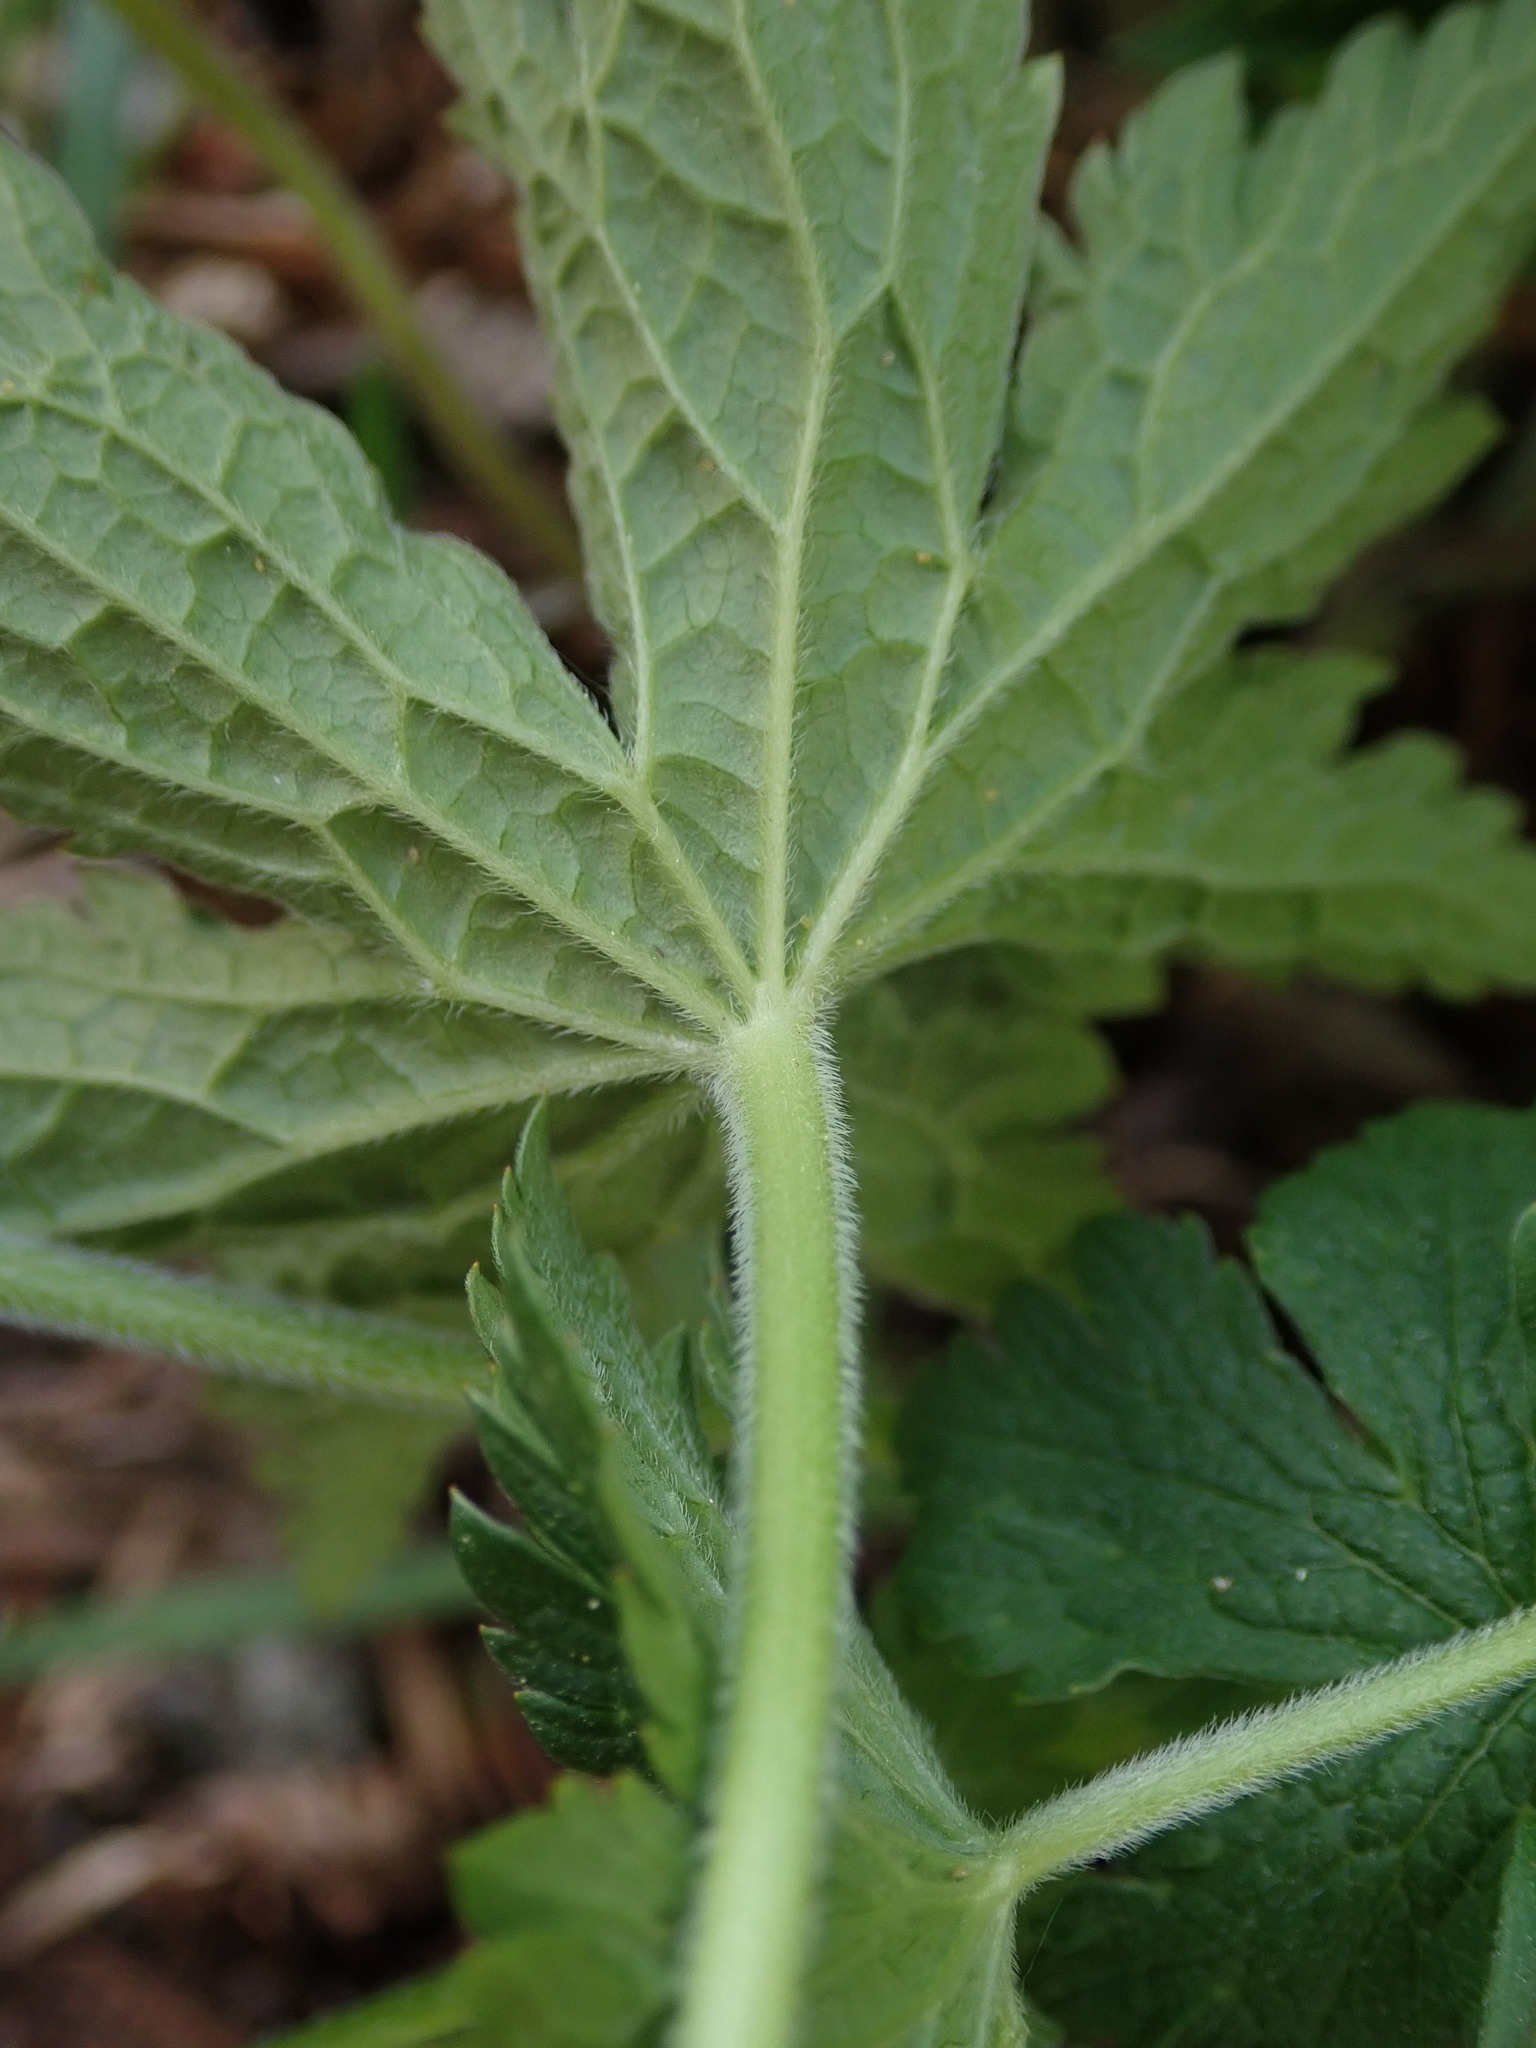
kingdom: Plantae
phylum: Tracheophyta
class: Magnoliopsida
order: Geraniales
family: Geraniaceae
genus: Geranium
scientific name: Geranium sylvaticum
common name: Wood crane's-bill
